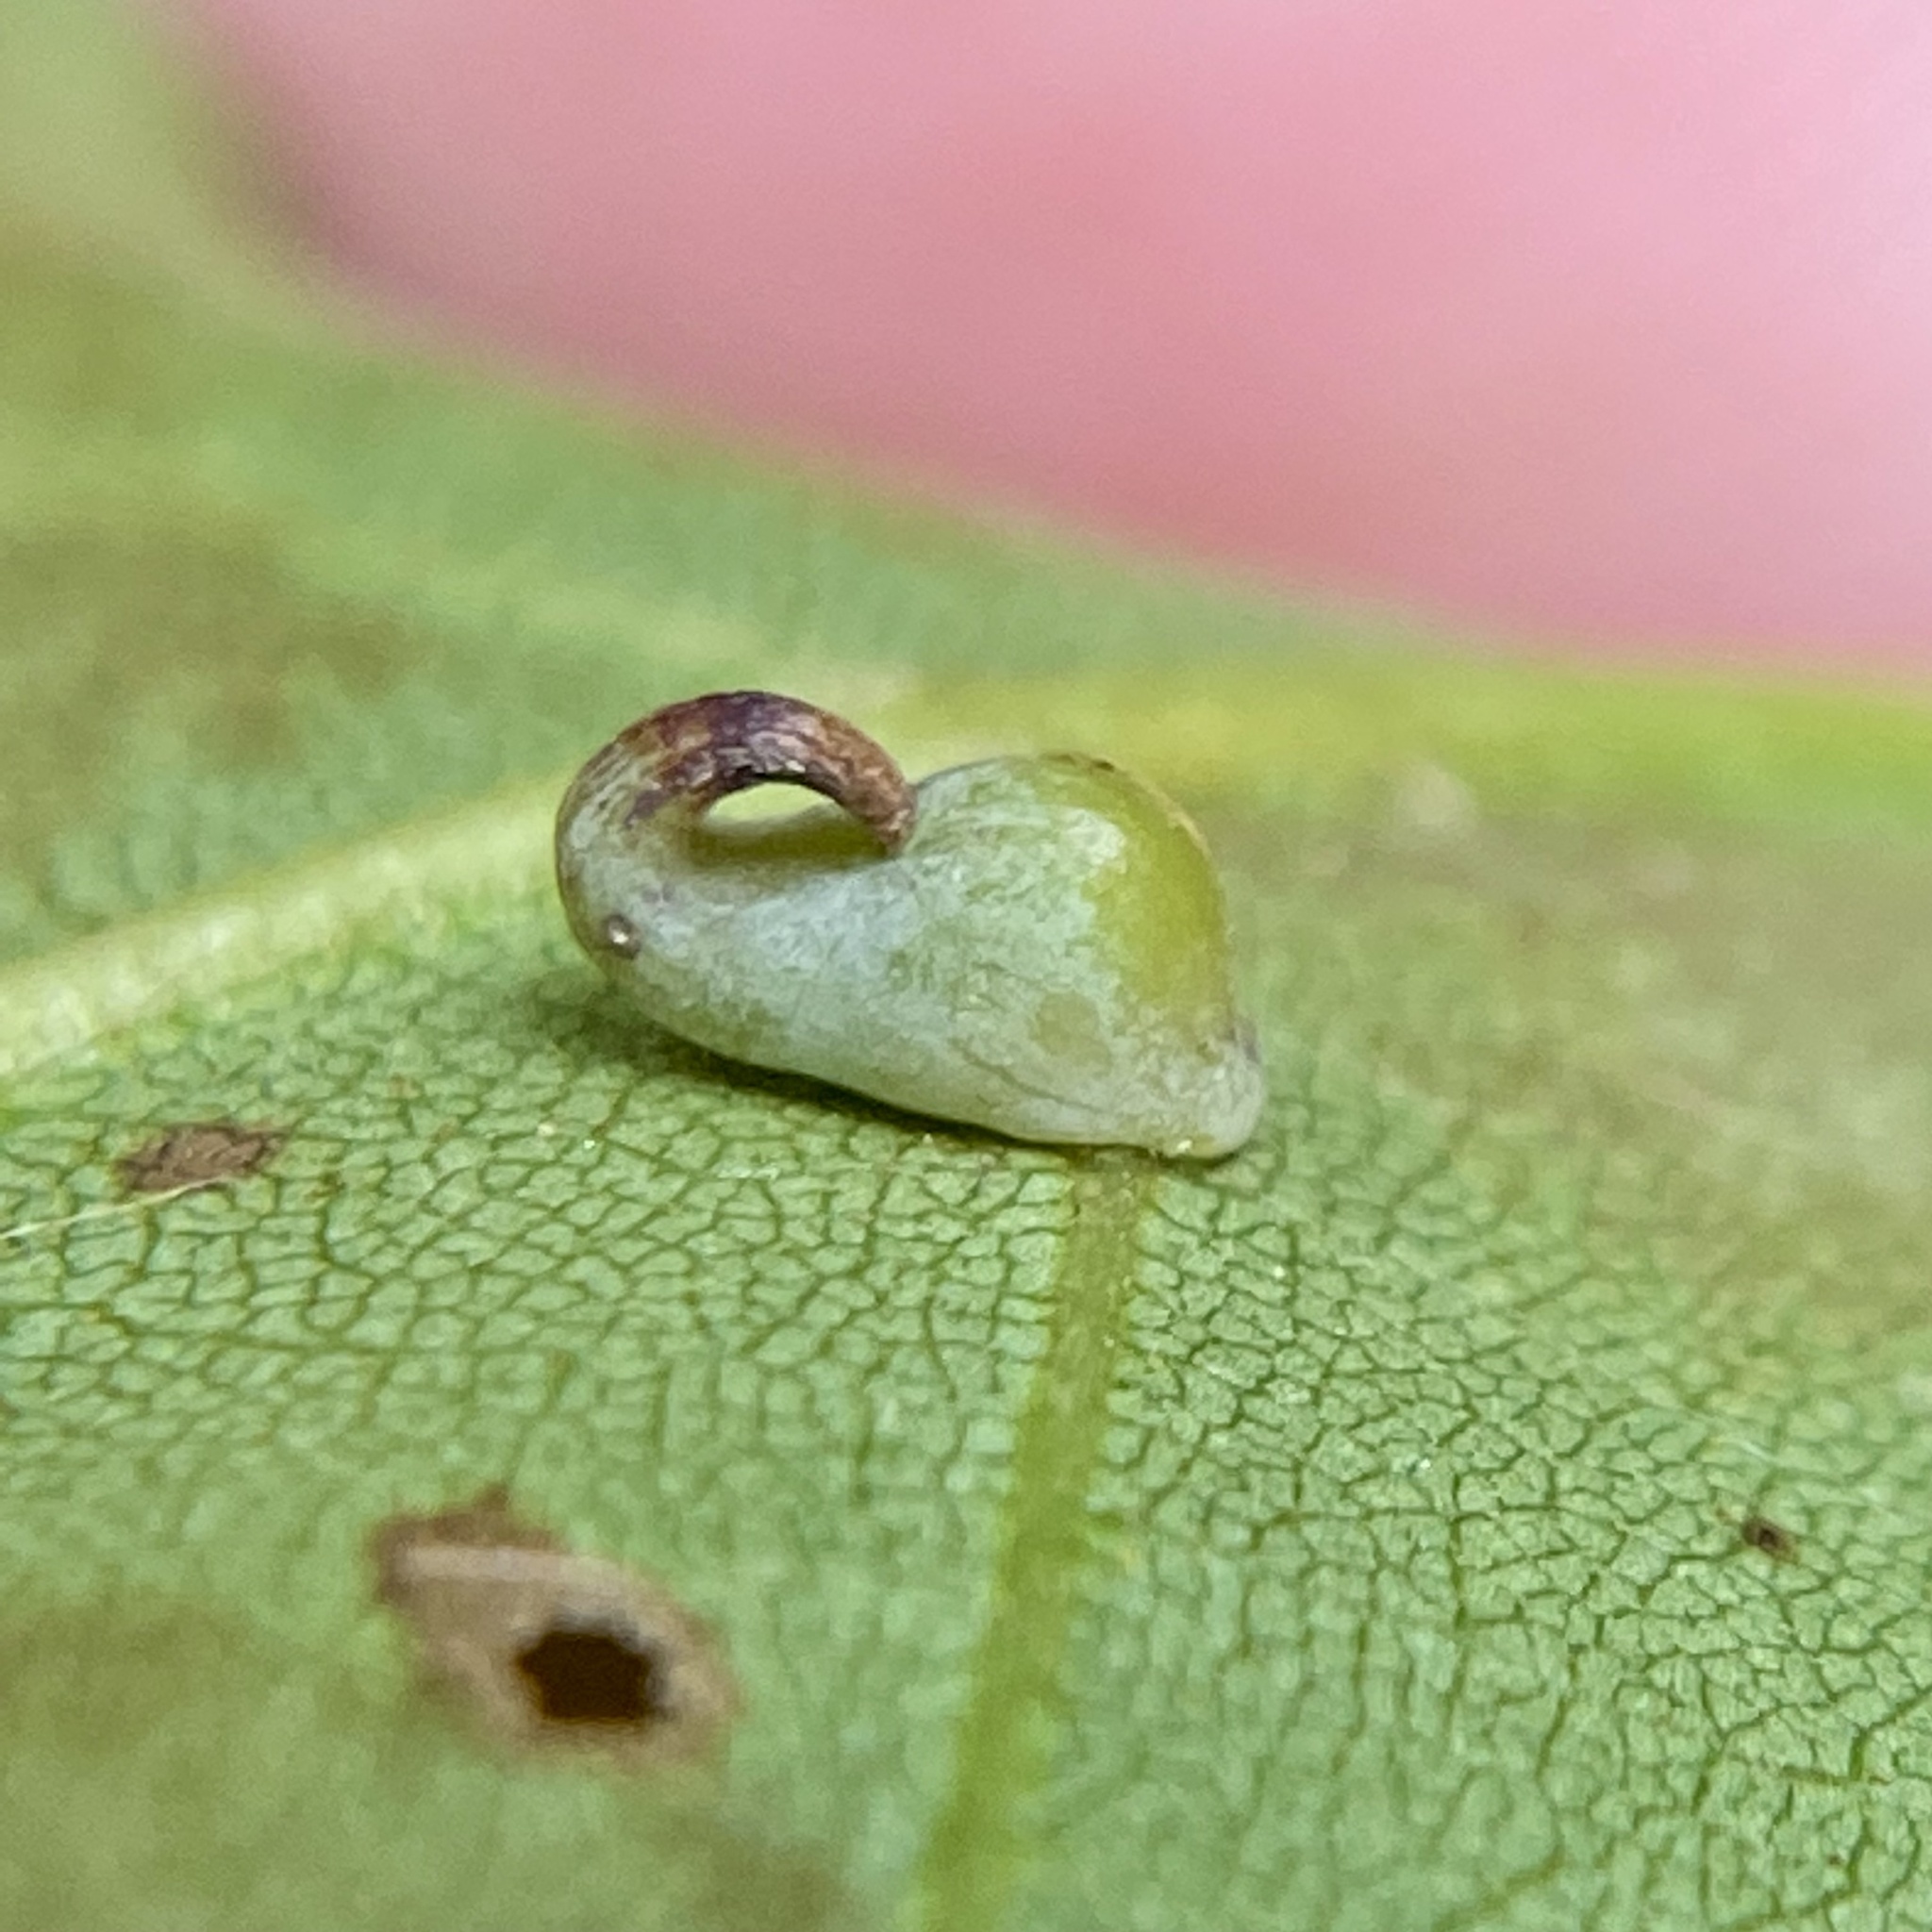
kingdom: Animalia
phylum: Arthropoda
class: Insecta
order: Diptera
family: Cecidomyiidae
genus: Caryomyia
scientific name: Caryomyia recurvata
